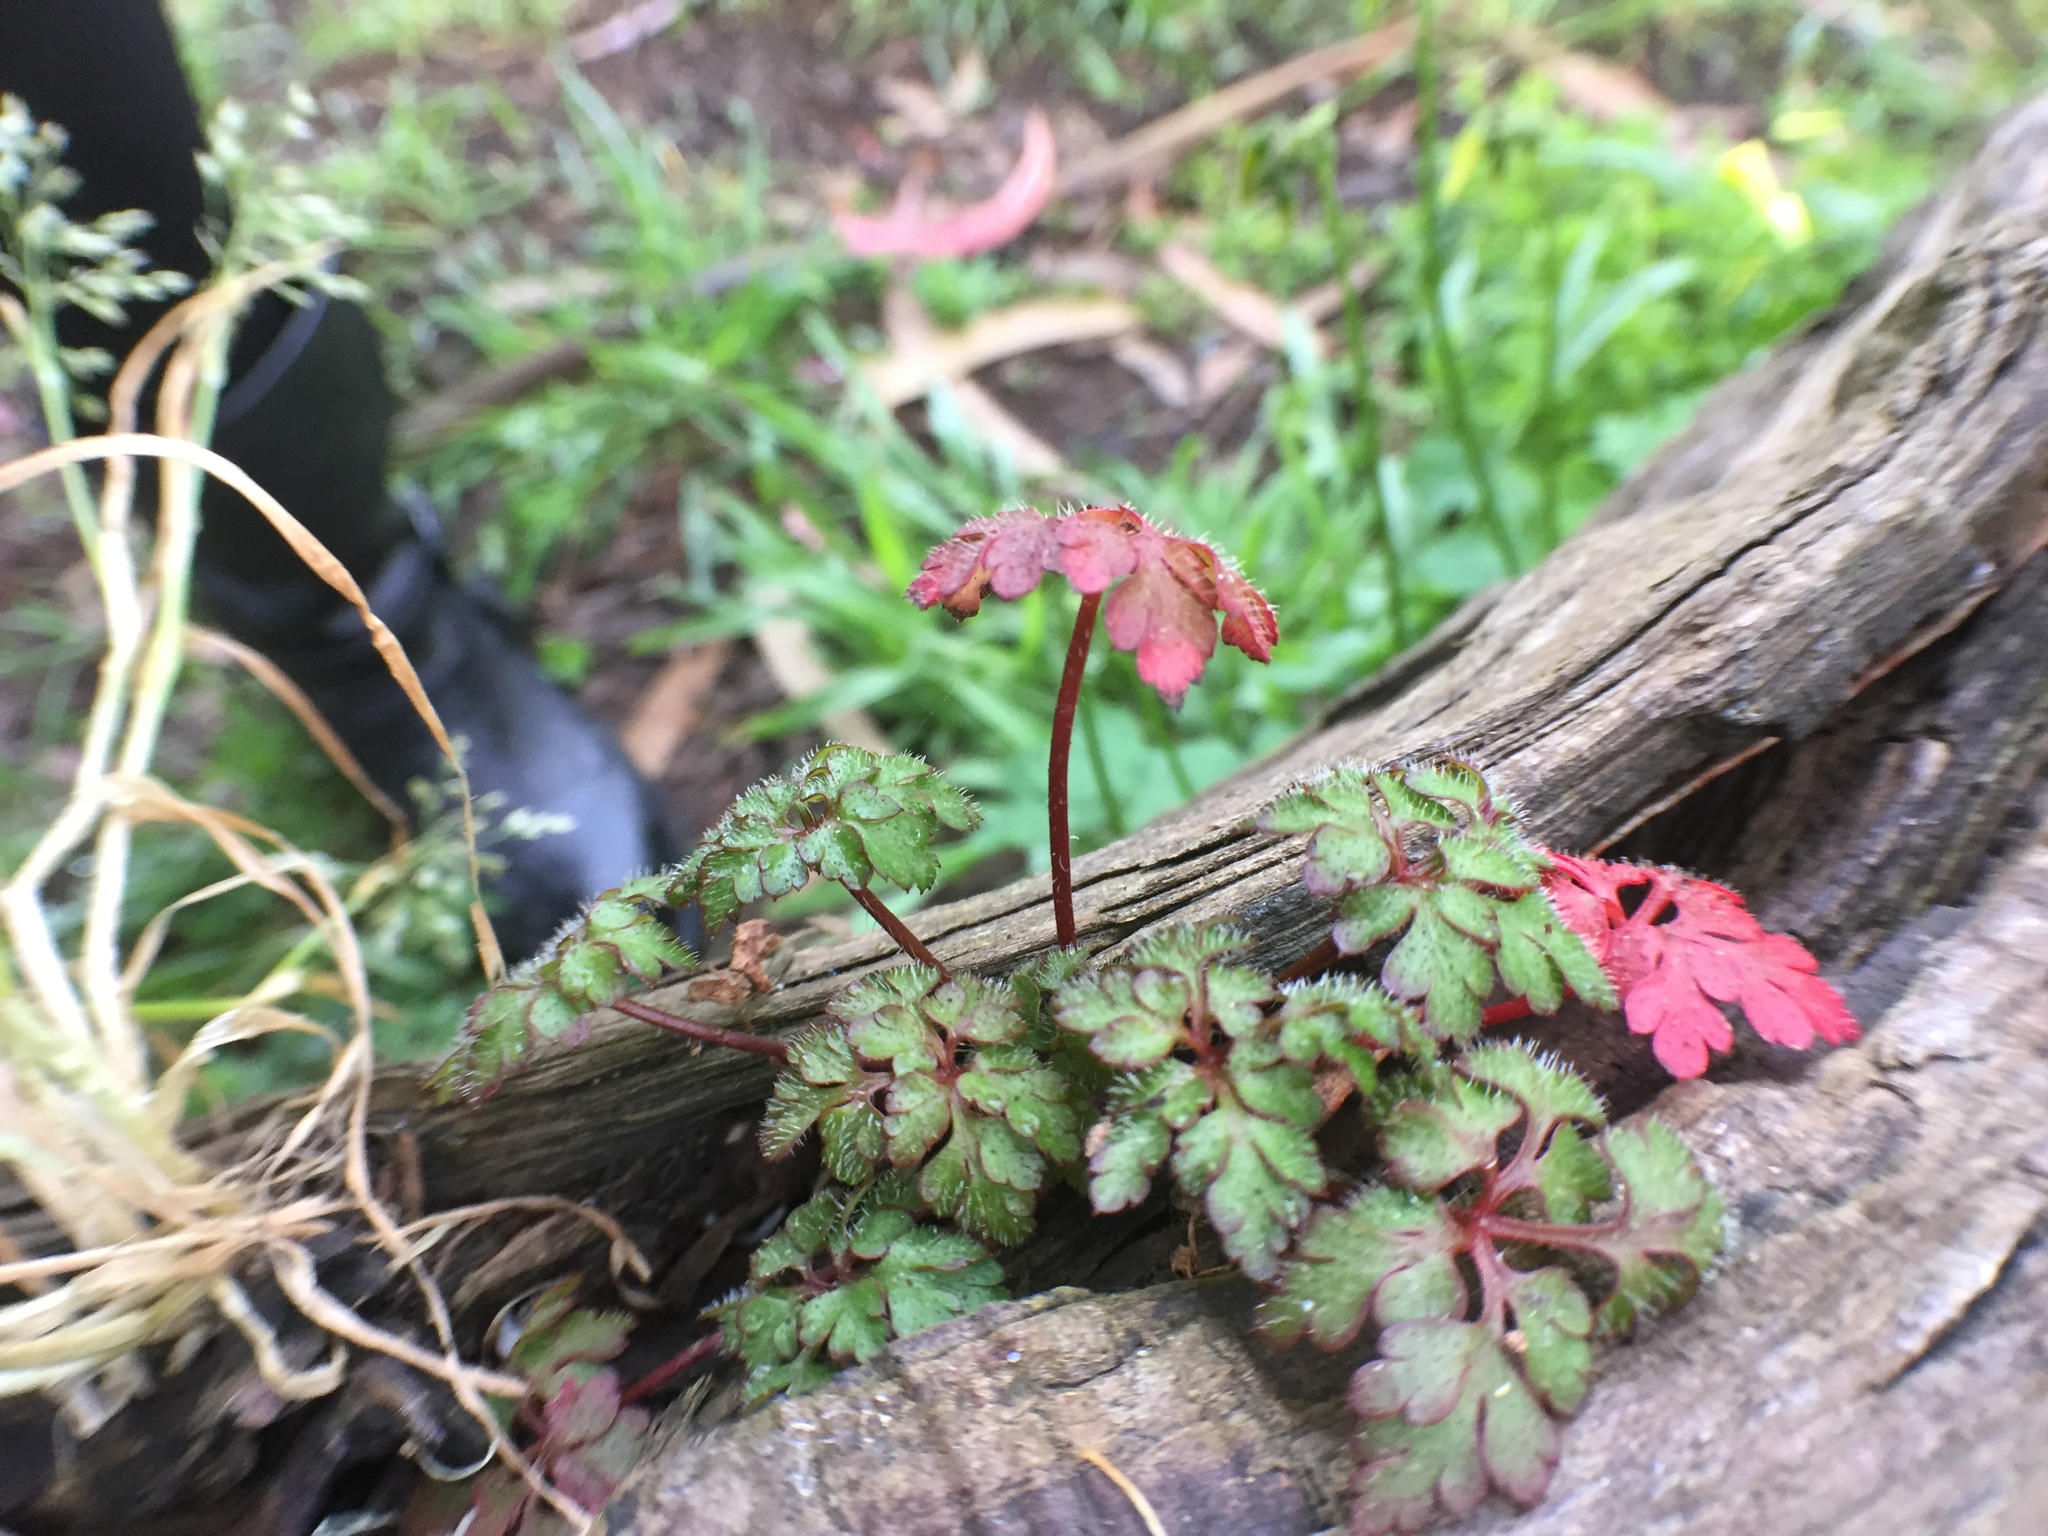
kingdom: Plantae
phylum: Tracheophyta
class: Magnoliopsida
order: Geraniales
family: Geraniaceae
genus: Geranium
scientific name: Geranium robertianum
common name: Herb-robert
